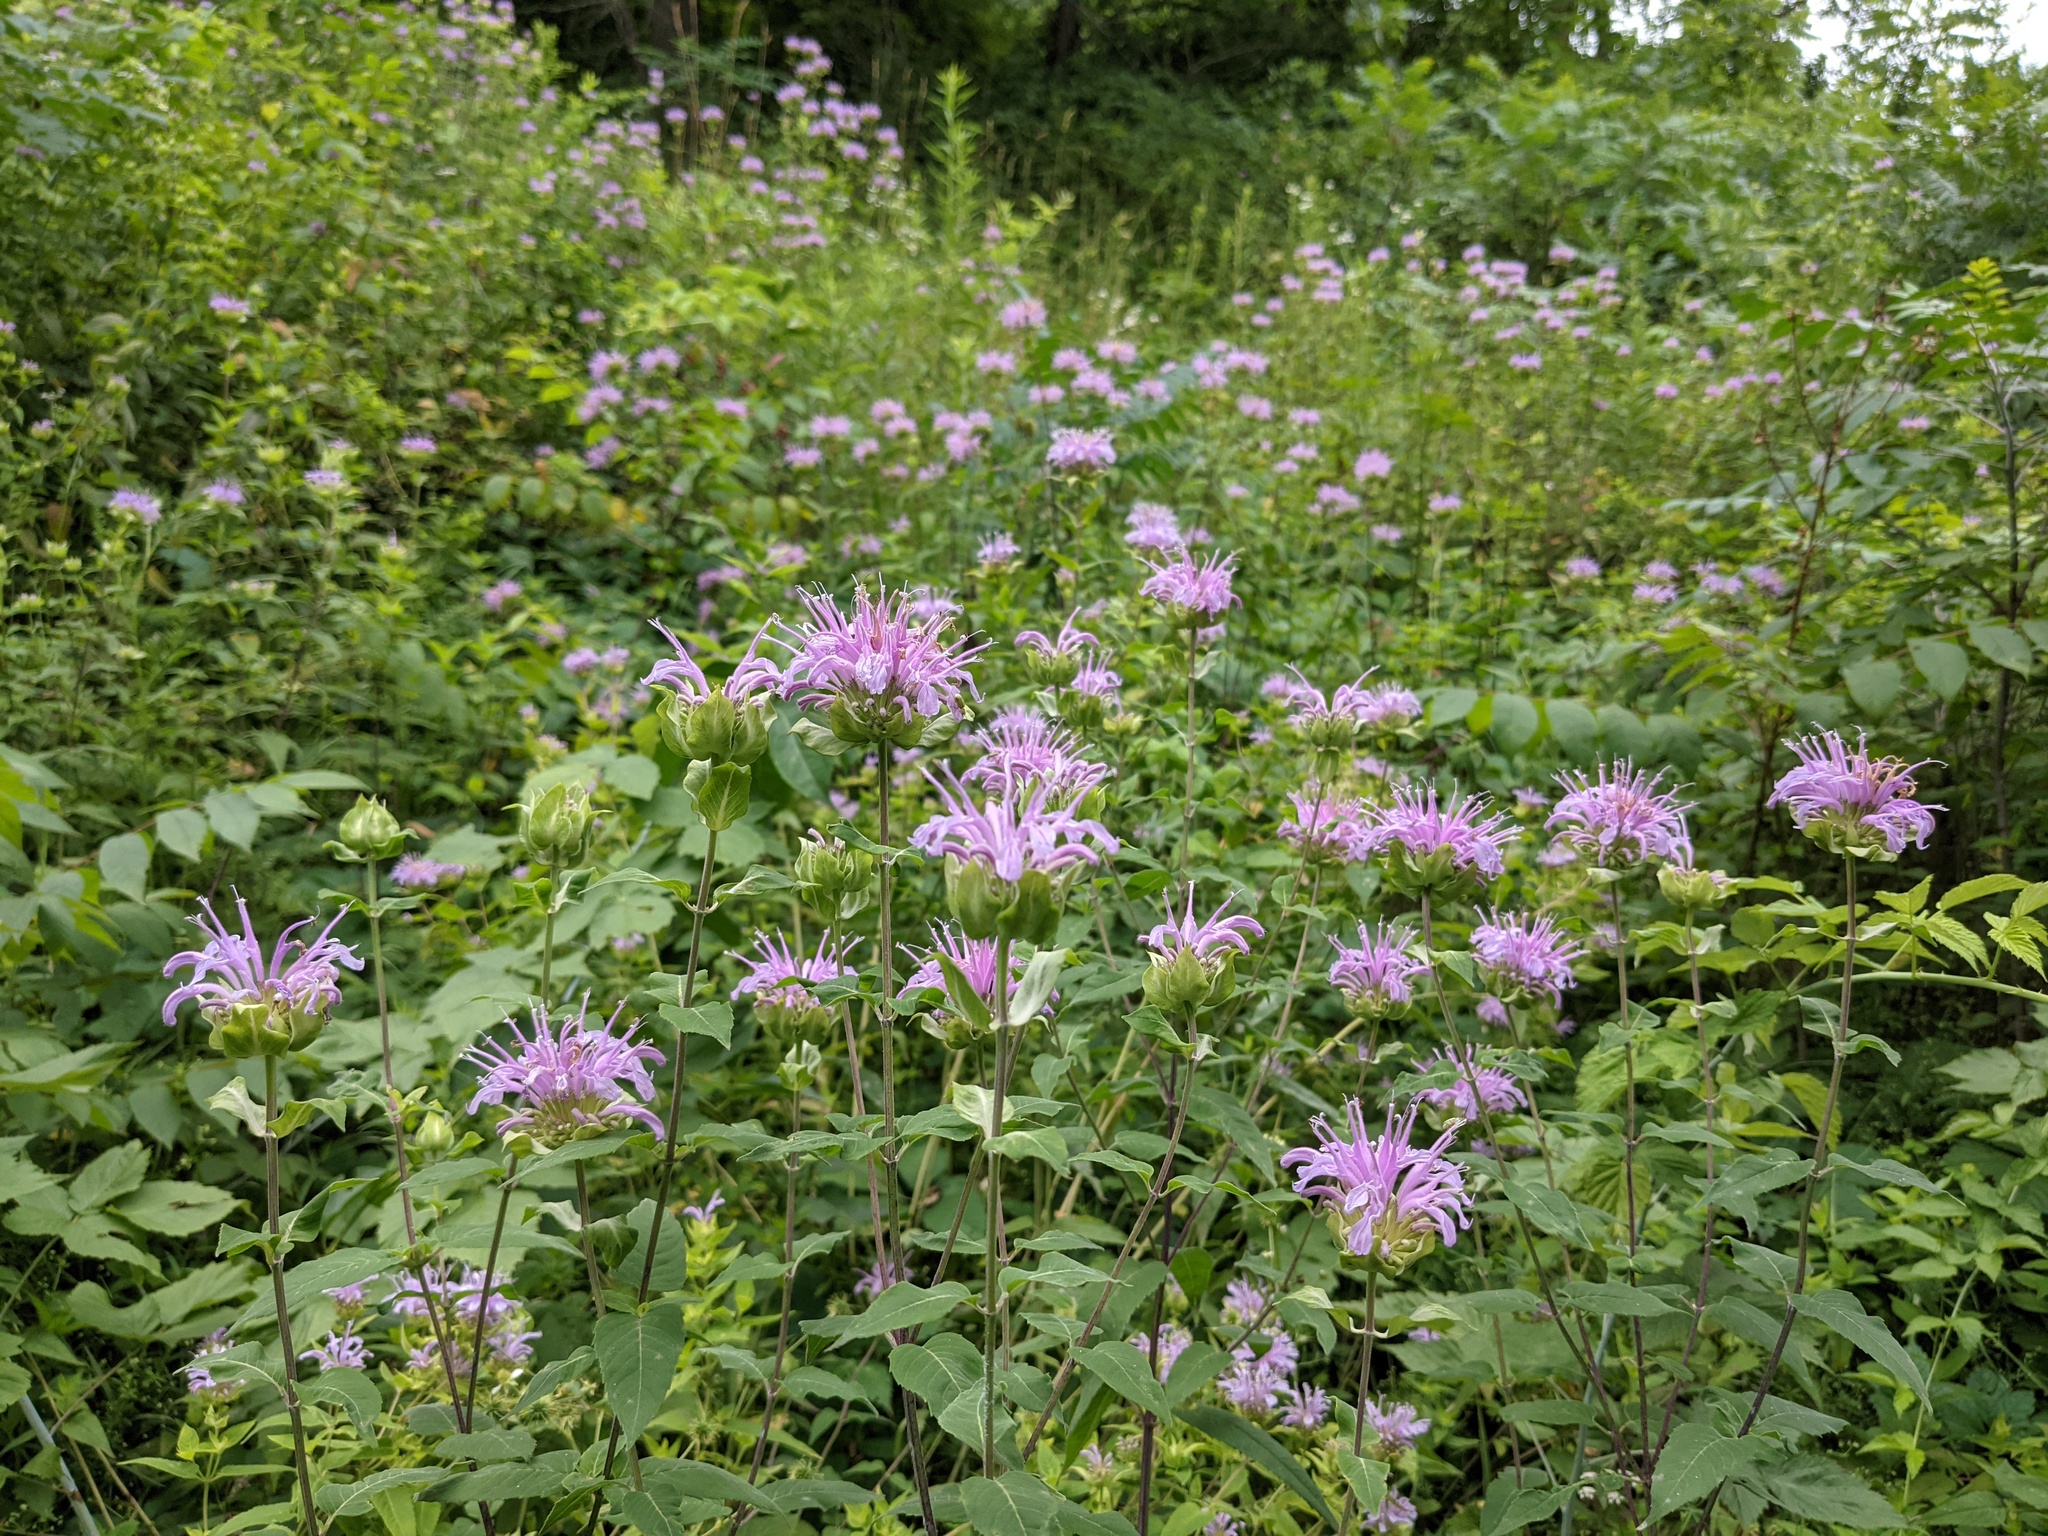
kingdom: Plantae
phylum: Tracheophyta
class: Magnoliopsida
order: Lamiales
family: Lamiaceae
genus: Monarda
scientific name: Monarda fistulosa
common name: Purple beebalm
